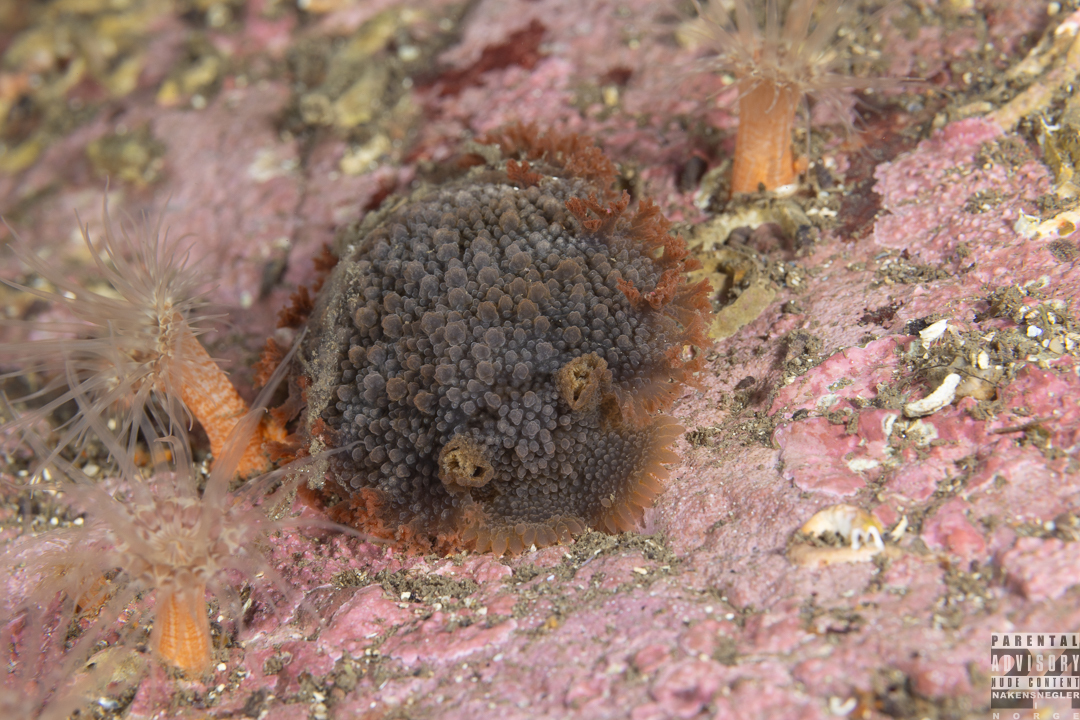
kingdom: Animalia
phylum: Mollusca
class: Gastropoda
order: Nudibranchia
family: Tritoniidae
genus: Tritonia
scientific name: Tritonia hombergii
